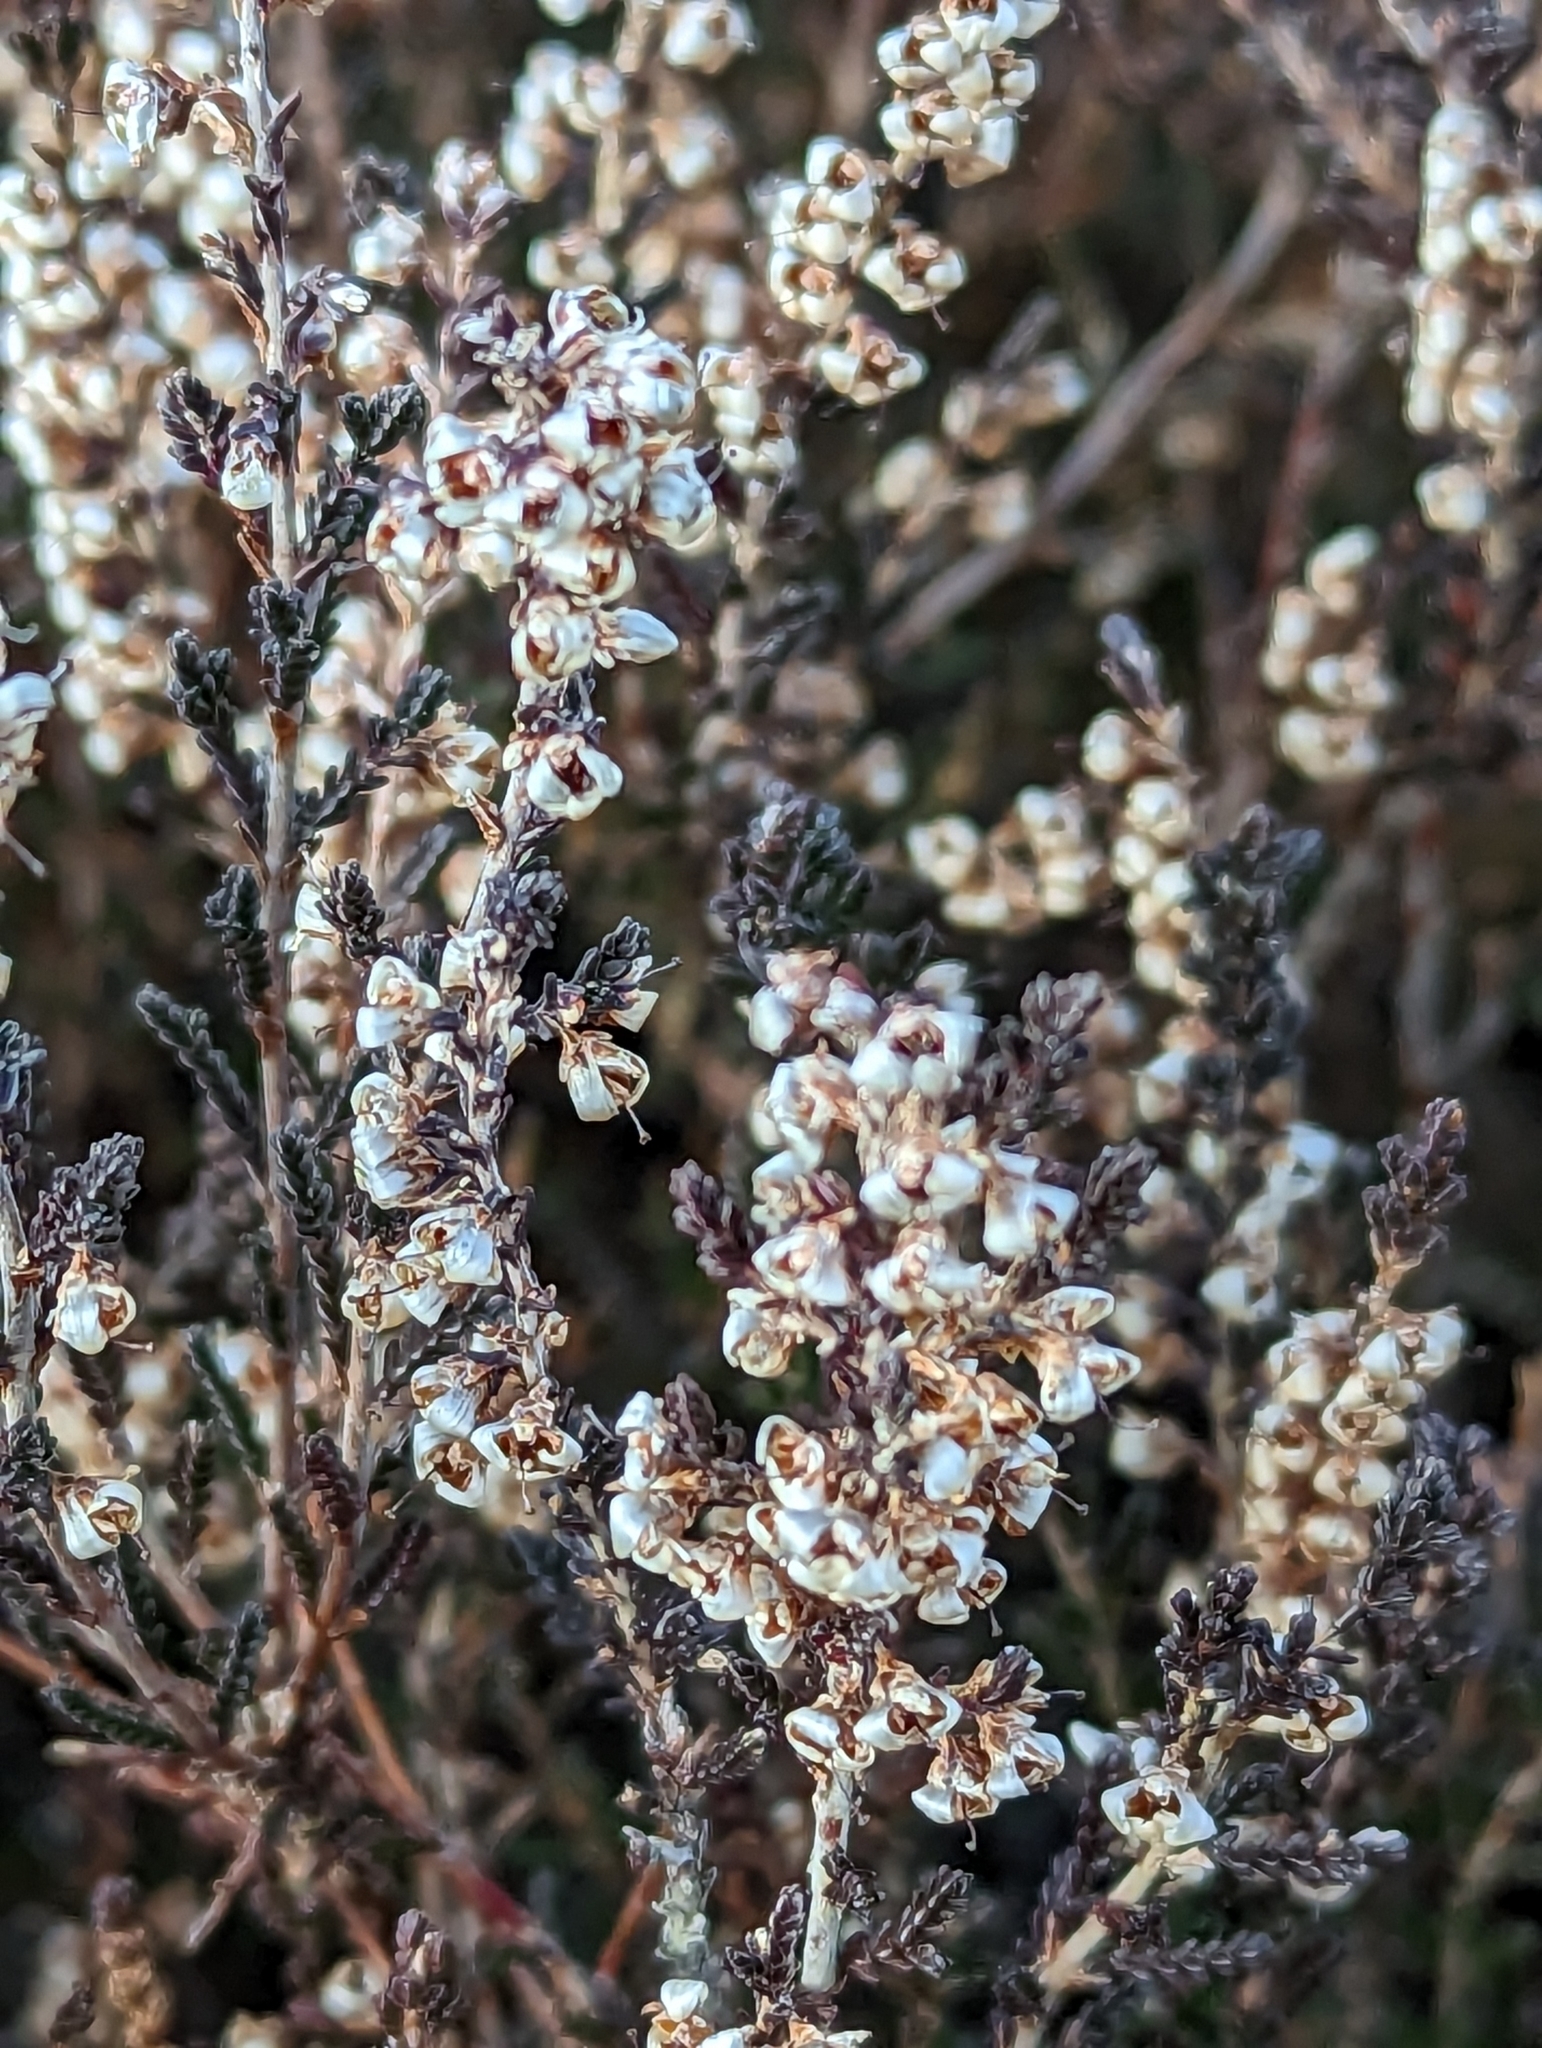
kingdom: Plantae
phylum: Tracheophyta
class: Magnoliopsida
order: Ericales
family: Ericaceae
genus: Calluna
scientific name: Calluna vulgaris
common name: Heather
